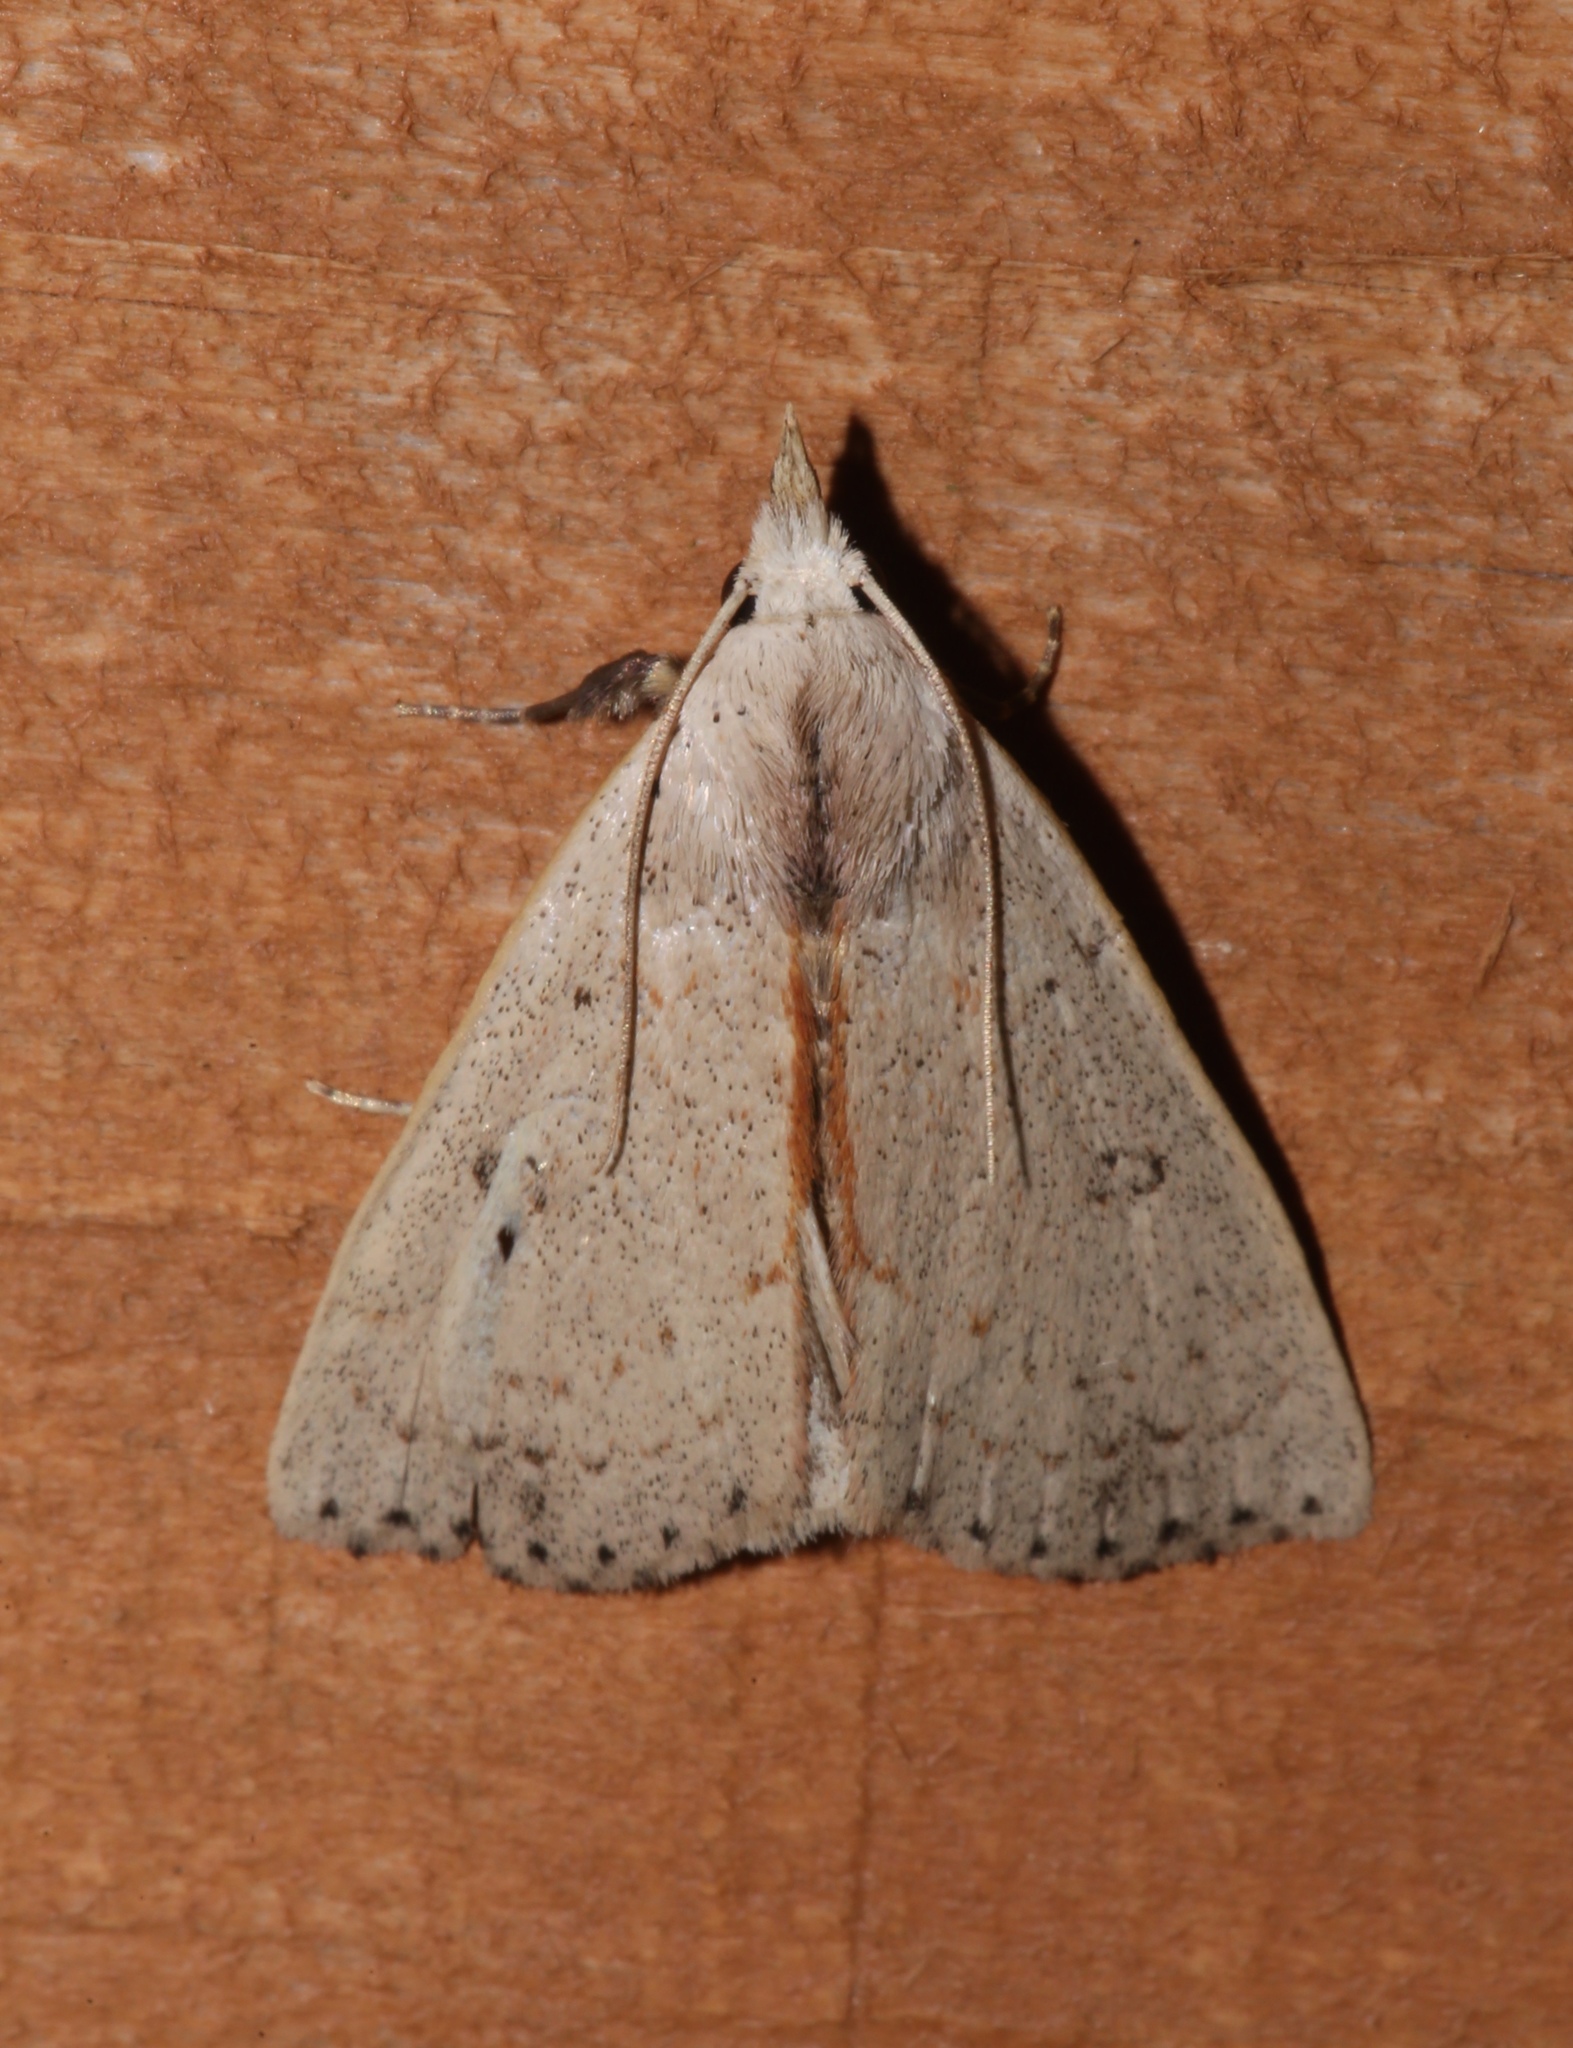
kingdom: Animalia
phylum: Arthropoda
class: Insecta
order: Lepidoptera
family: Erebidae
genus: Scolecocampa
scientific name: Scolecocampa liburna
